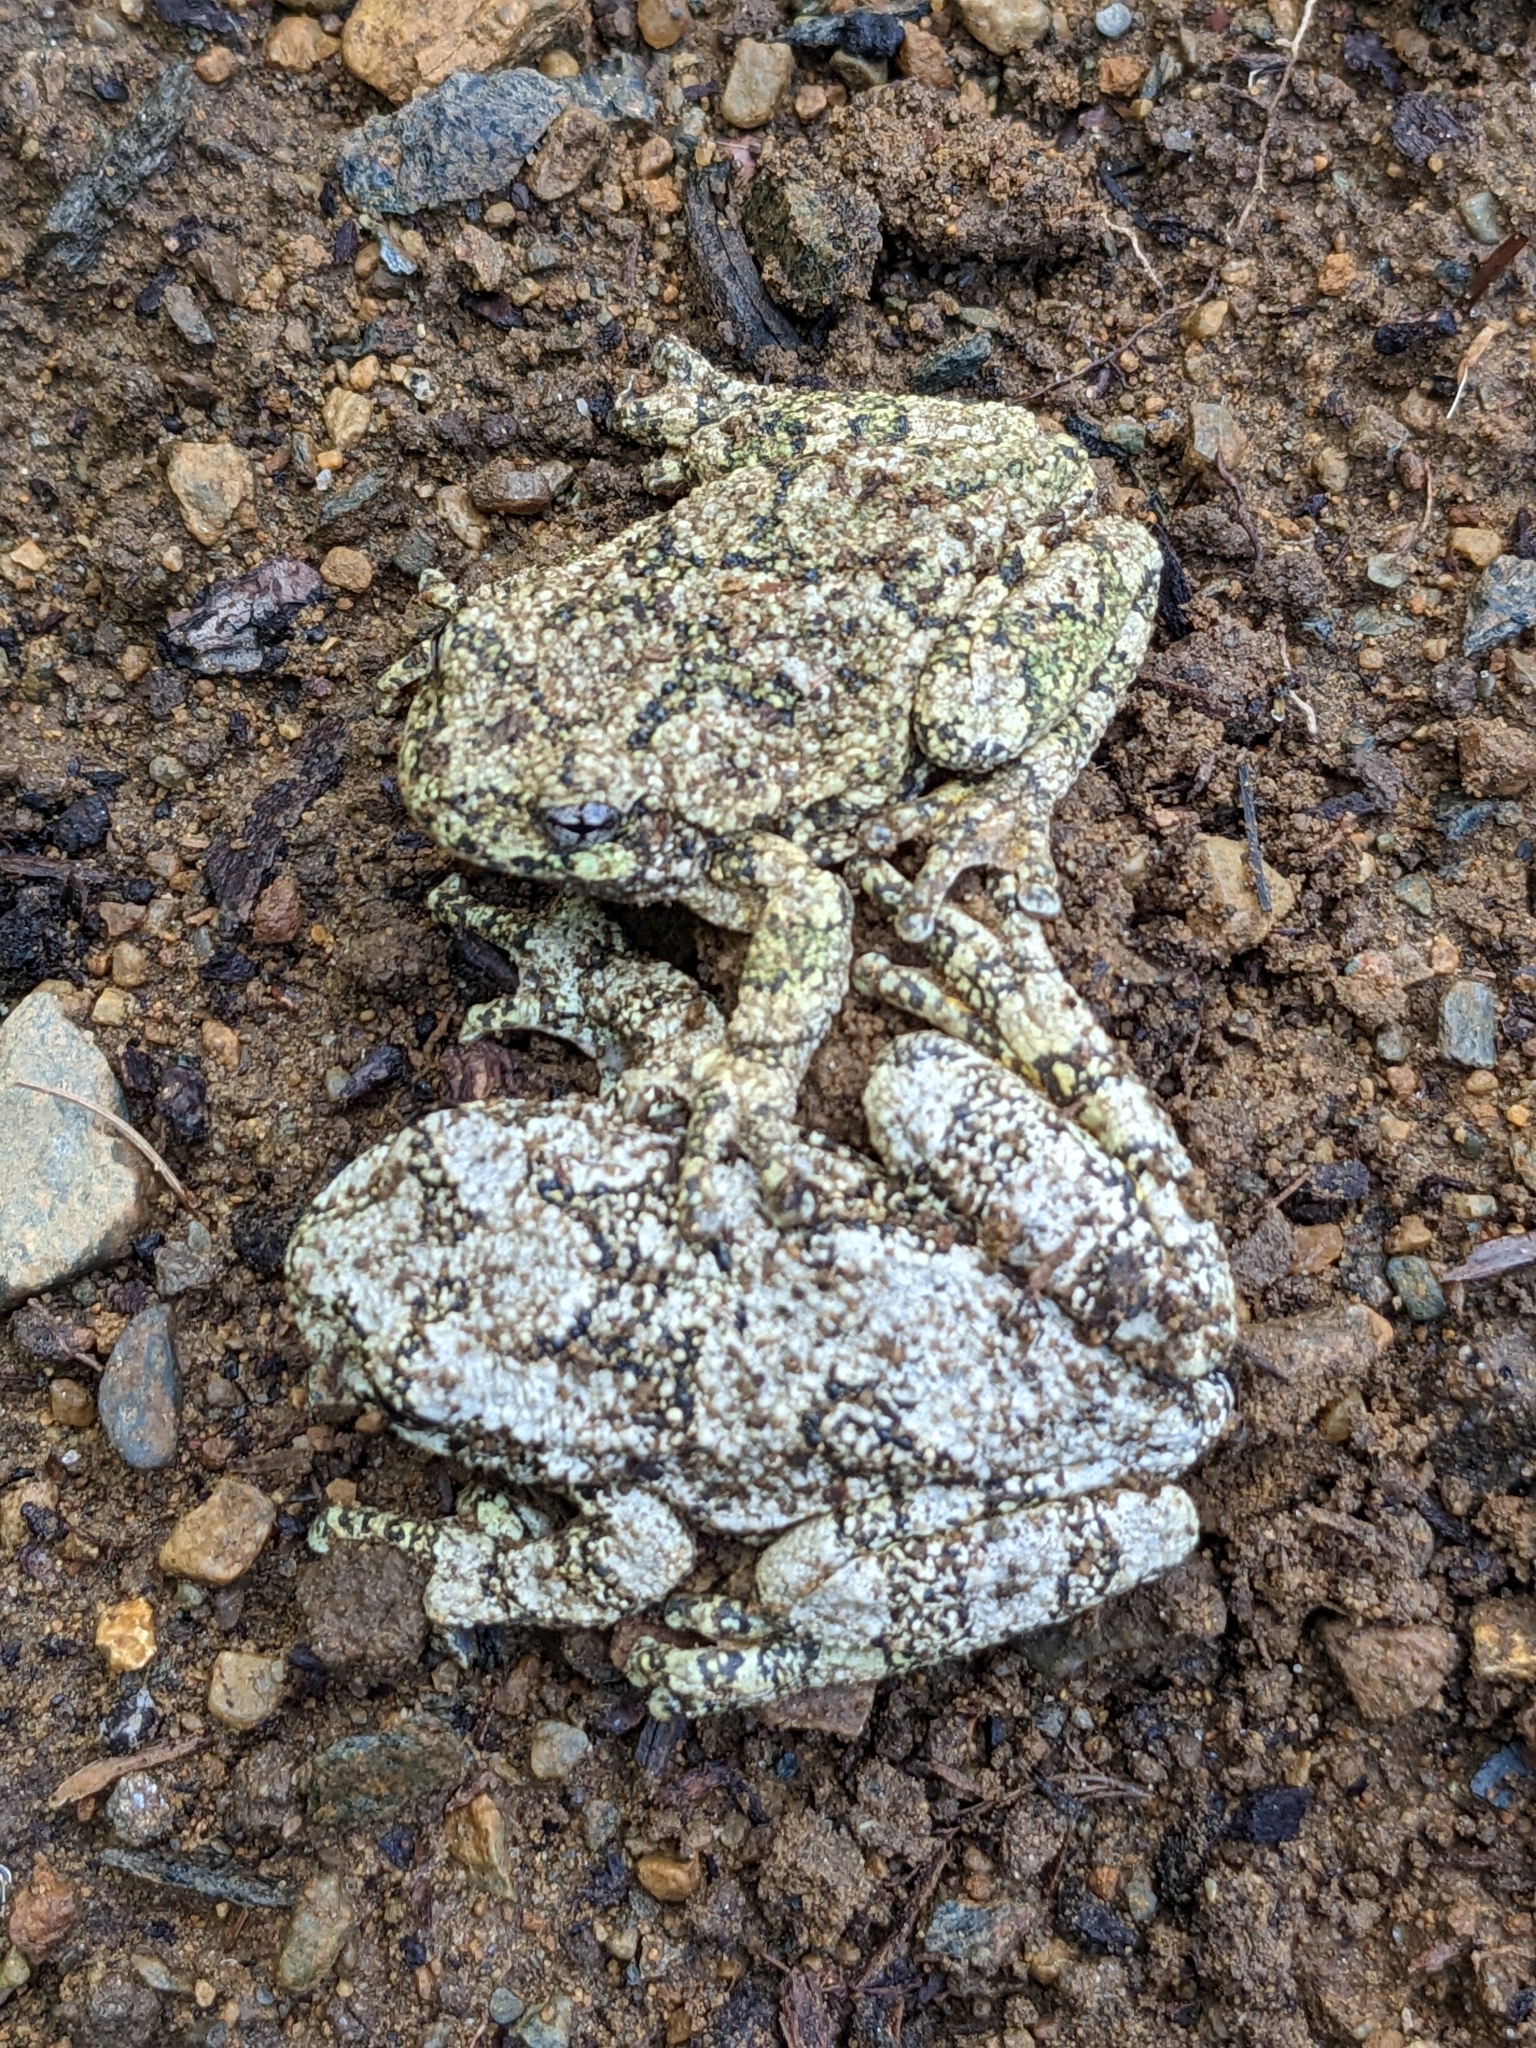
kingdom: Animalia
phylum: Chordata
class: Amphibia
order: Anura
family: Hylidae
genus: Dryophytes
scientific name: Dryophytes versicolor
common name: Gray treefrog
